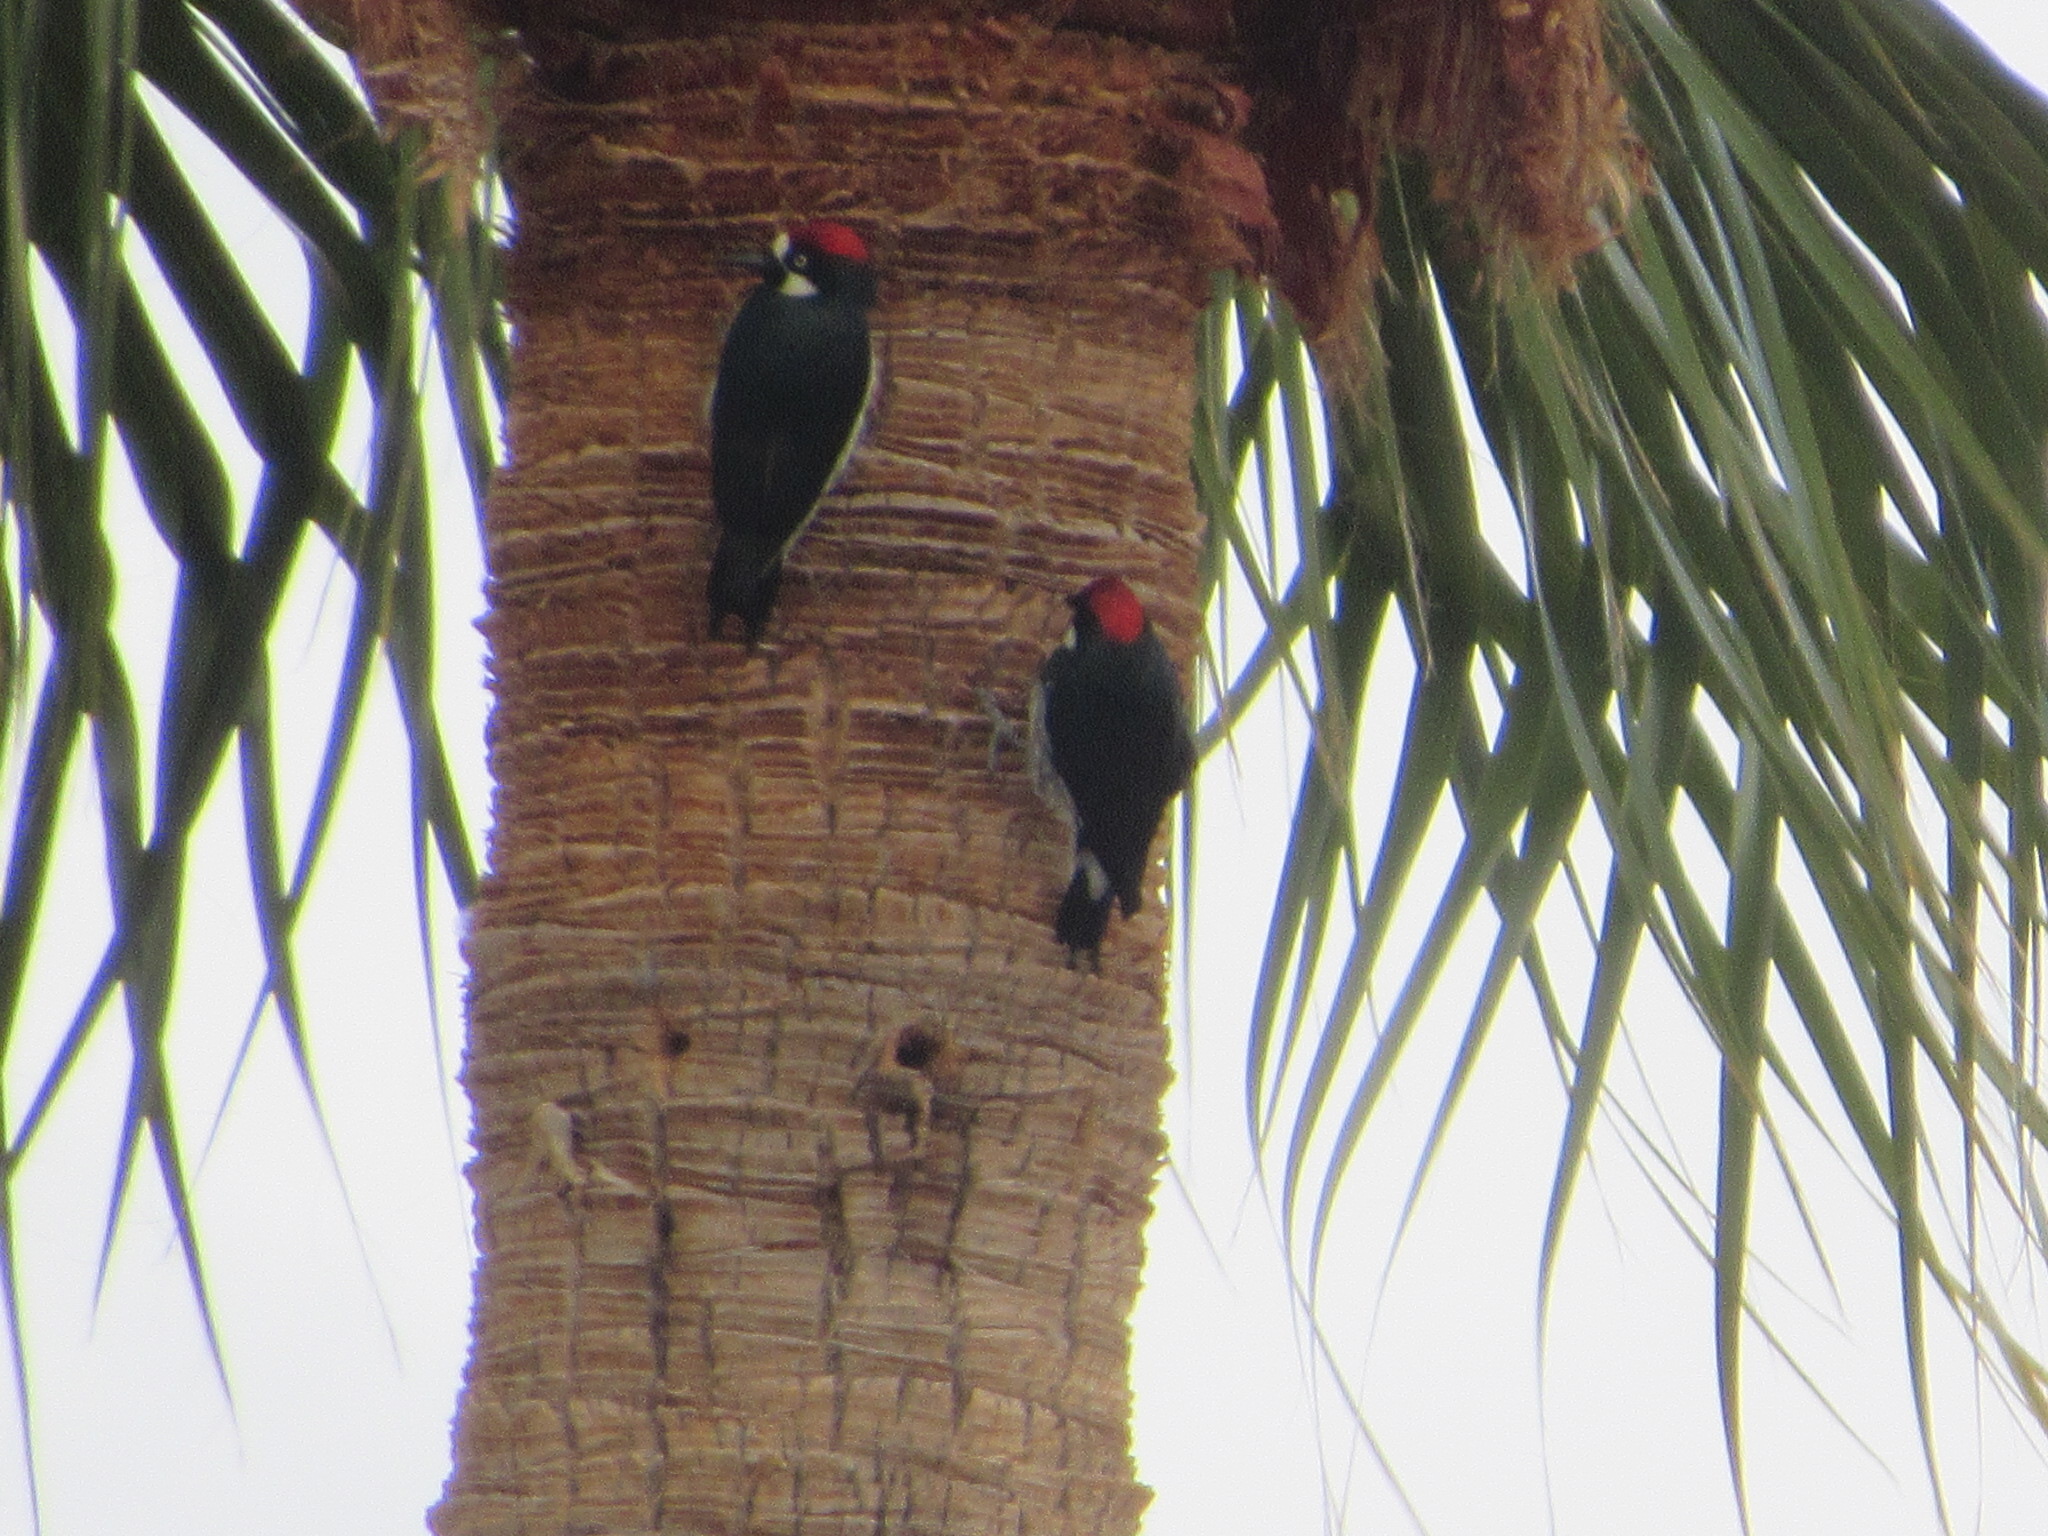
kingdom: Animalia
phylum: Chordata
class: Aves
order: Piciformes
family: Picidae
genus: Melanerpes
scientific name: Melanerpes formicivorus
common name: Acorn woodpecker
